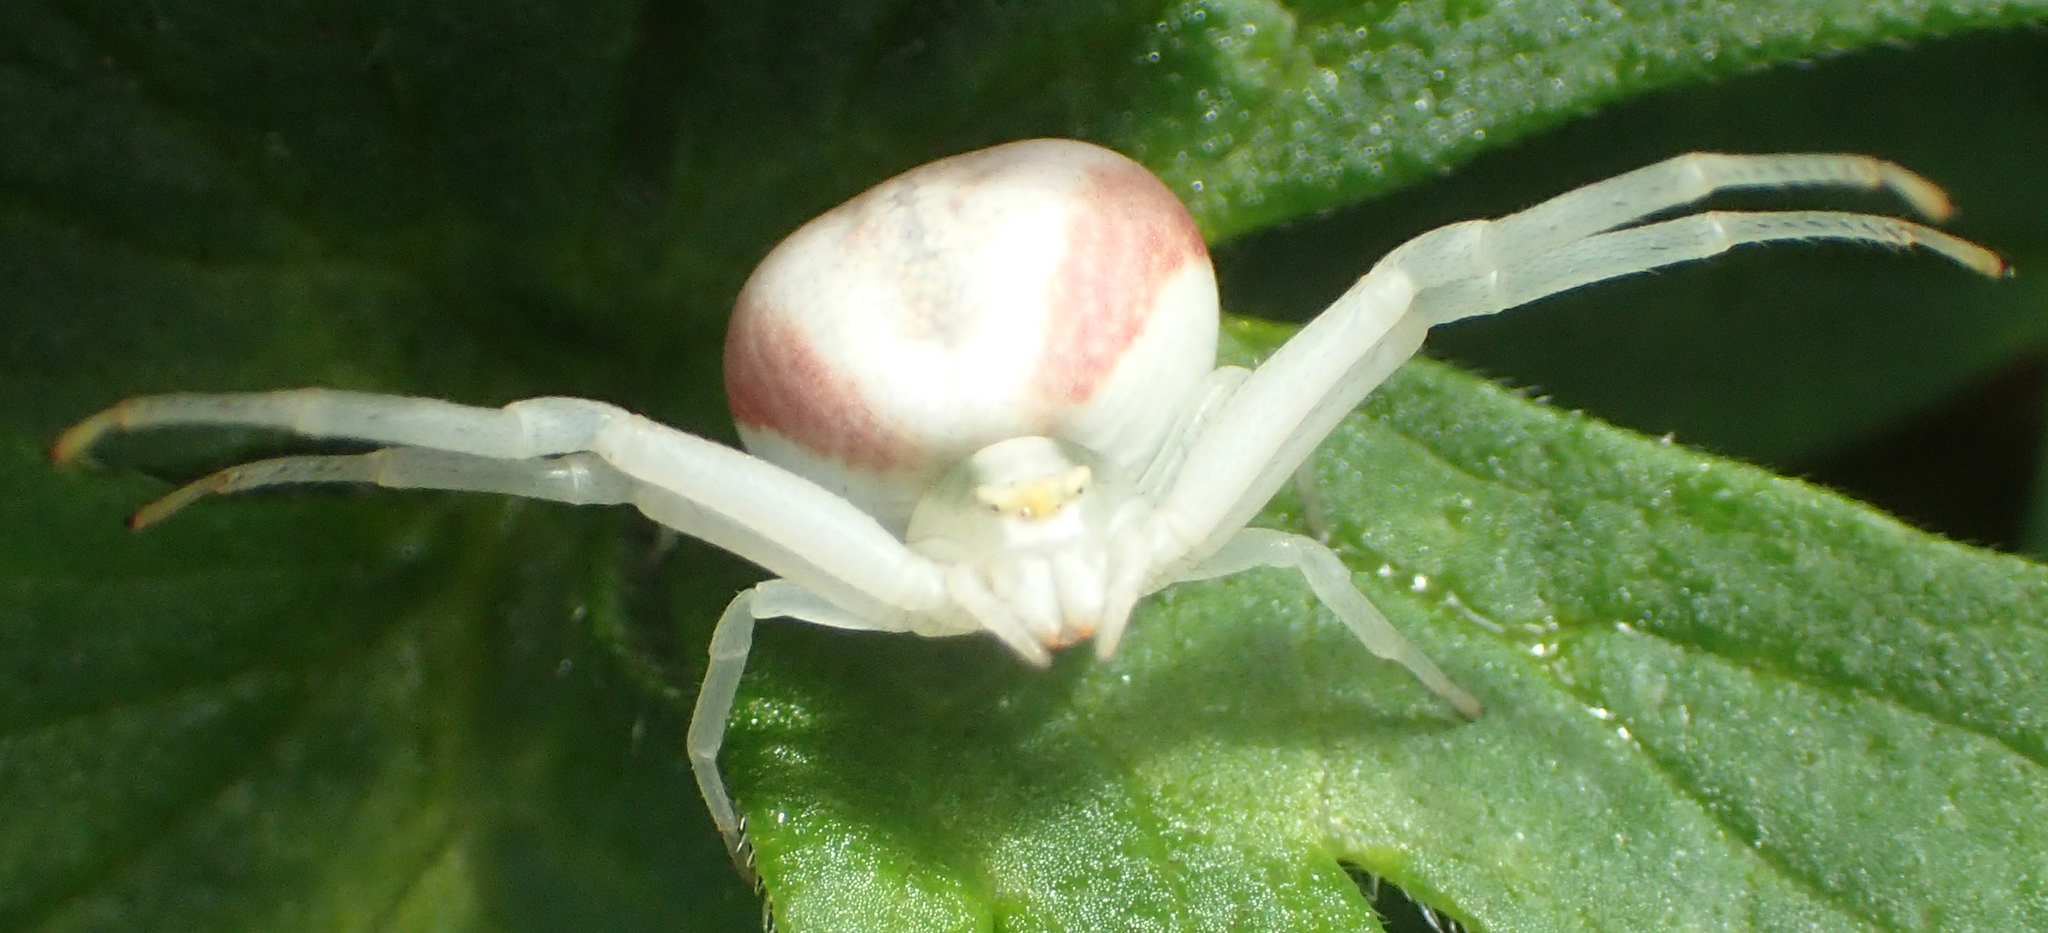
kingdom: Animalia
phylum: Arthropoda
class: Arachnida
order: Araneae
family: Thomisidae
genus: Misumena
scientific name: Misumena vatia
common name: Goldenrod crab spider
